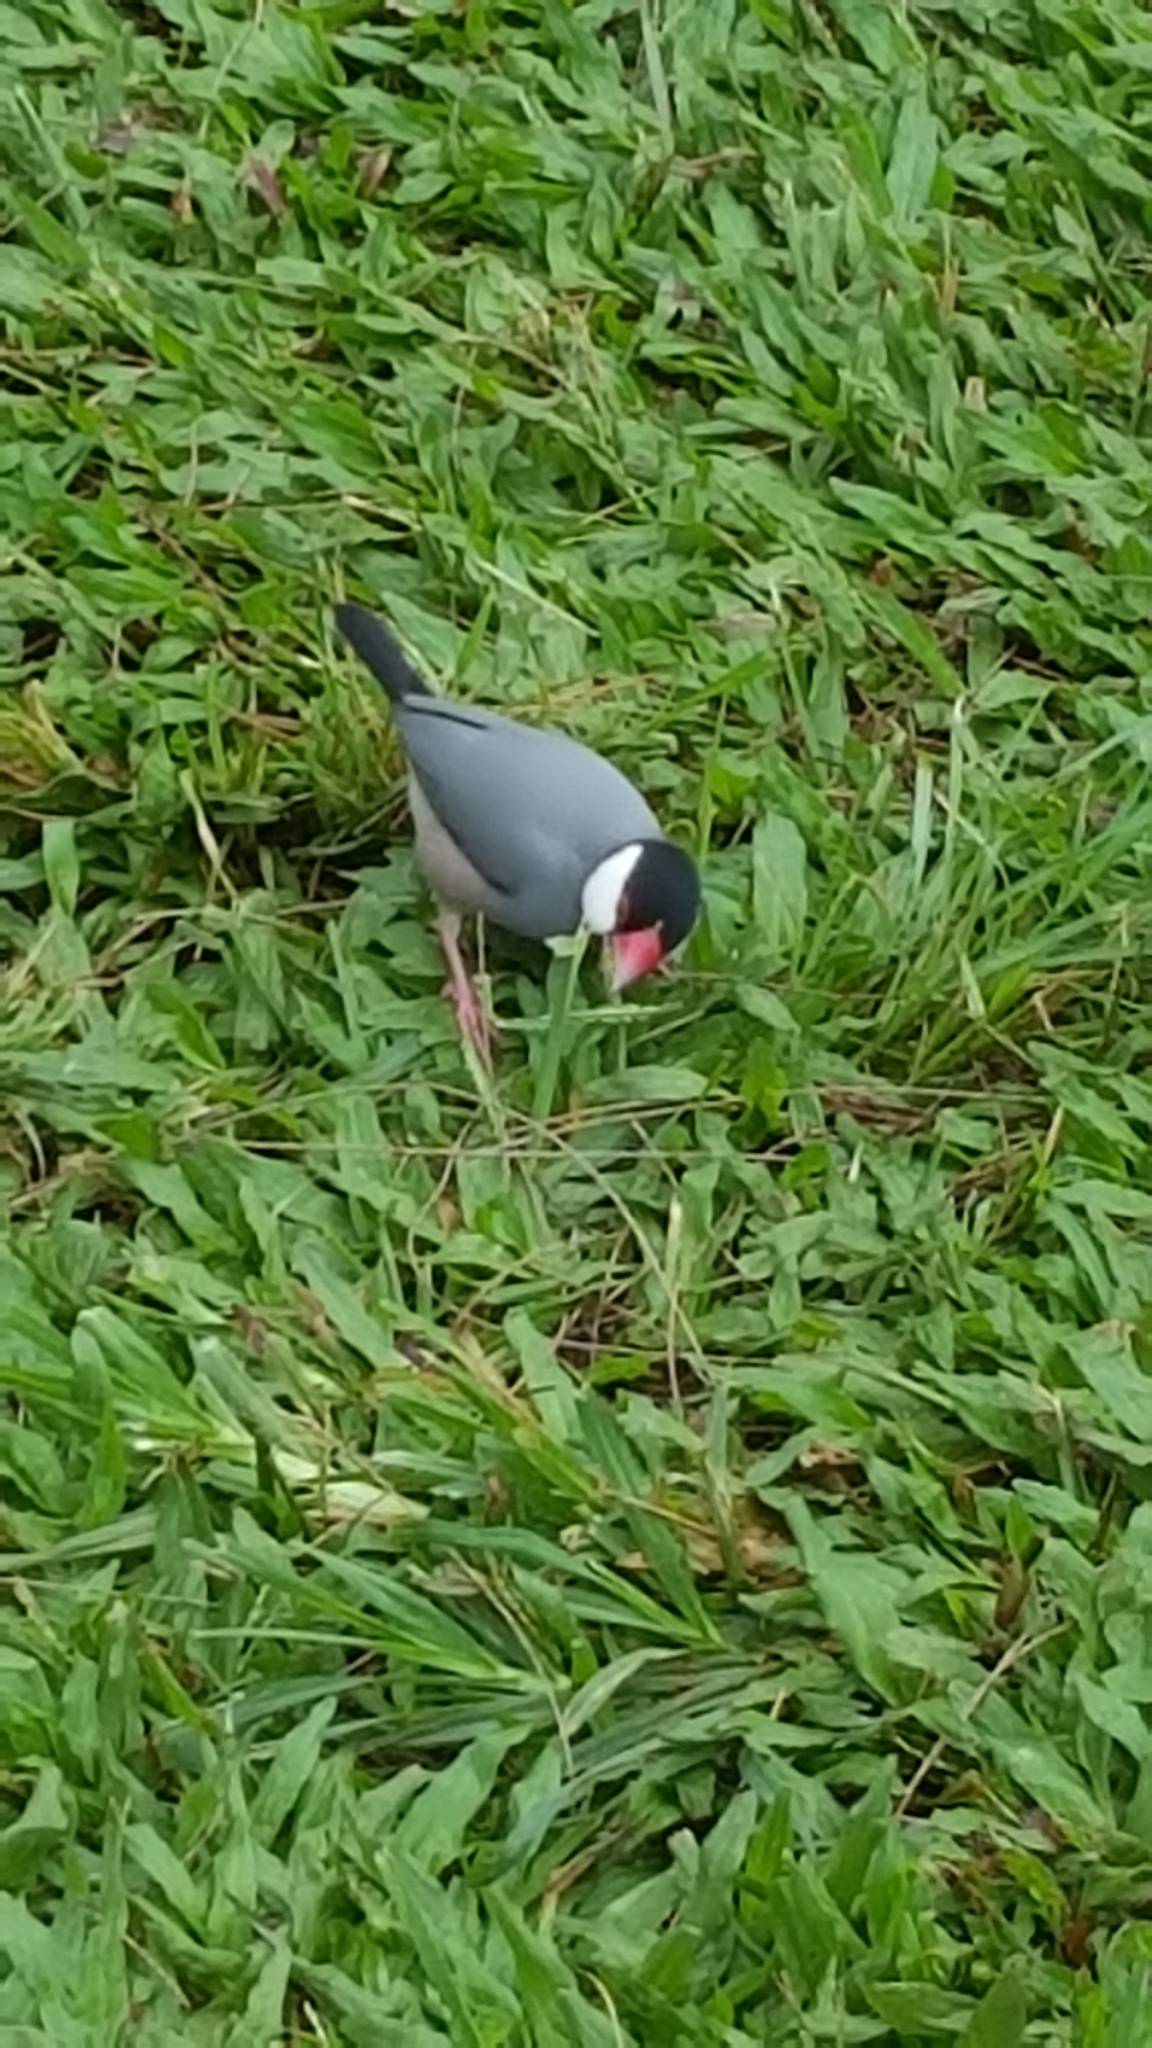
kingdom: Animalia
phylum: Chordata
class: Aves
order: Passeriformes
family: Estrildidae
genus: Lonchura
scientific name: Lonchura oryzivora
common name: Java sparrow
